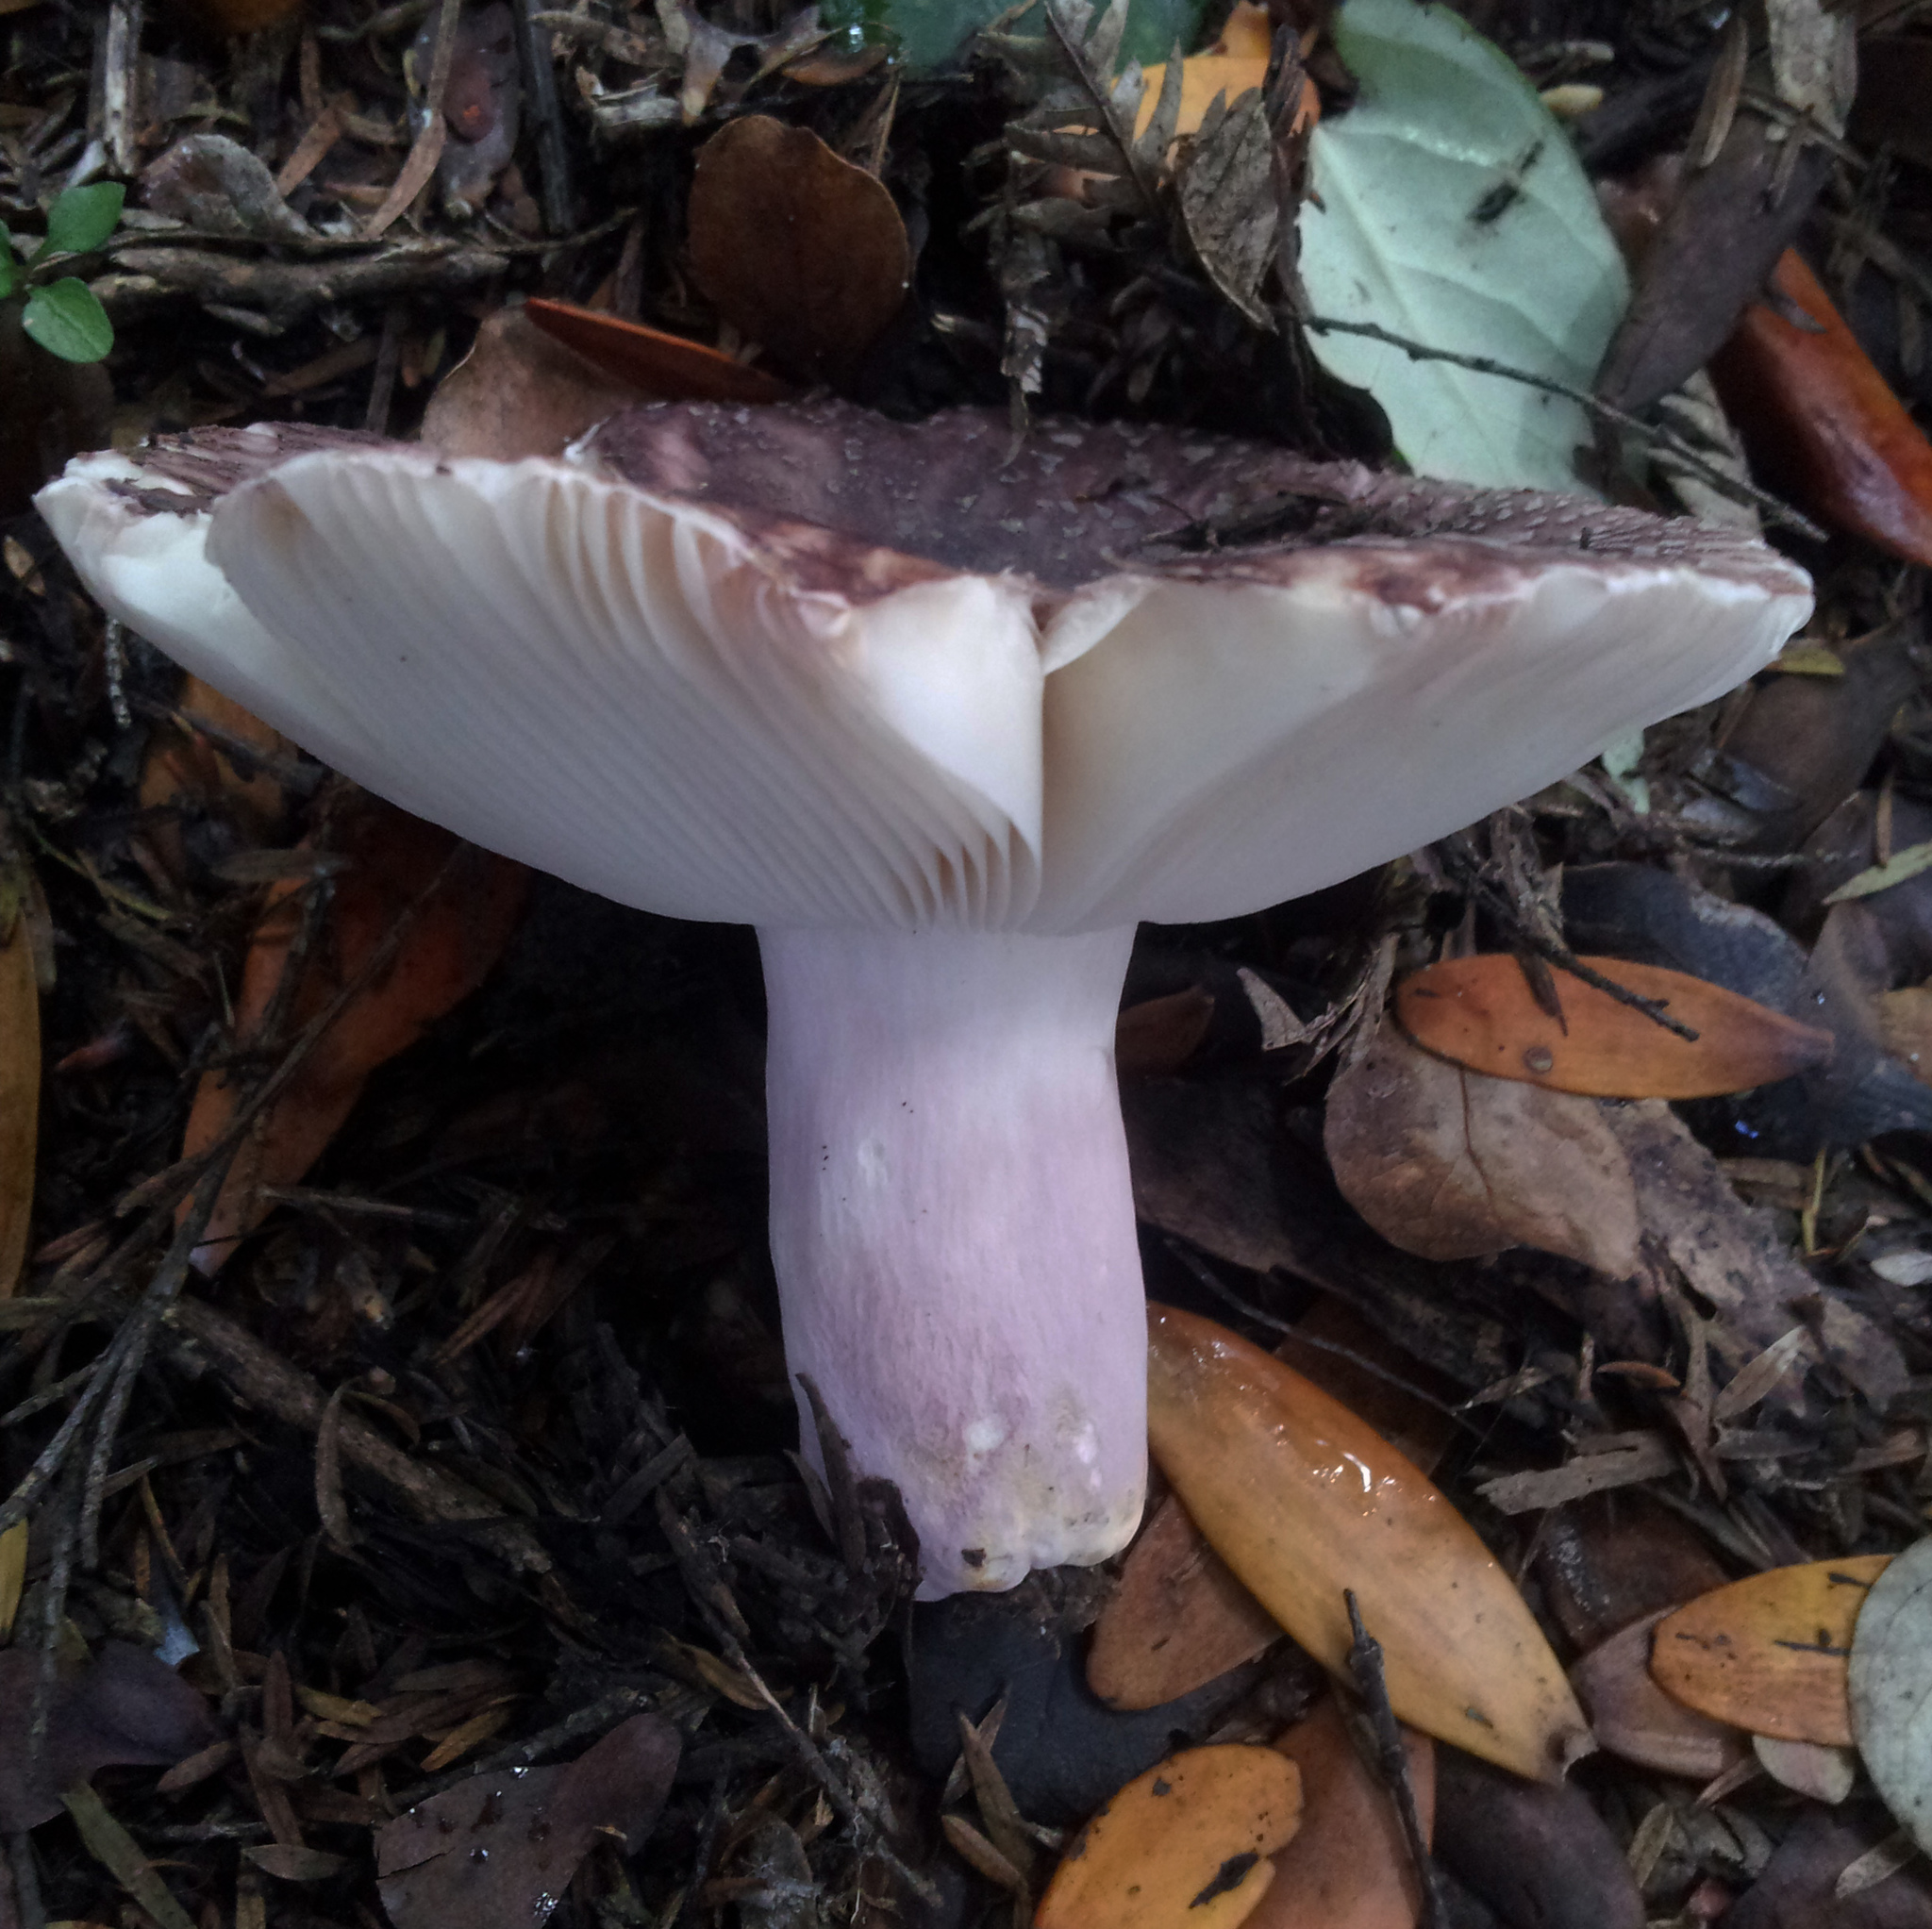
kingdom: Fungi
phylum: Basidiomycota
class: Agaricomycetes
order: Russulales
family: Russulaceae
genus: Russula
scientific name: Russula griseoviridis
